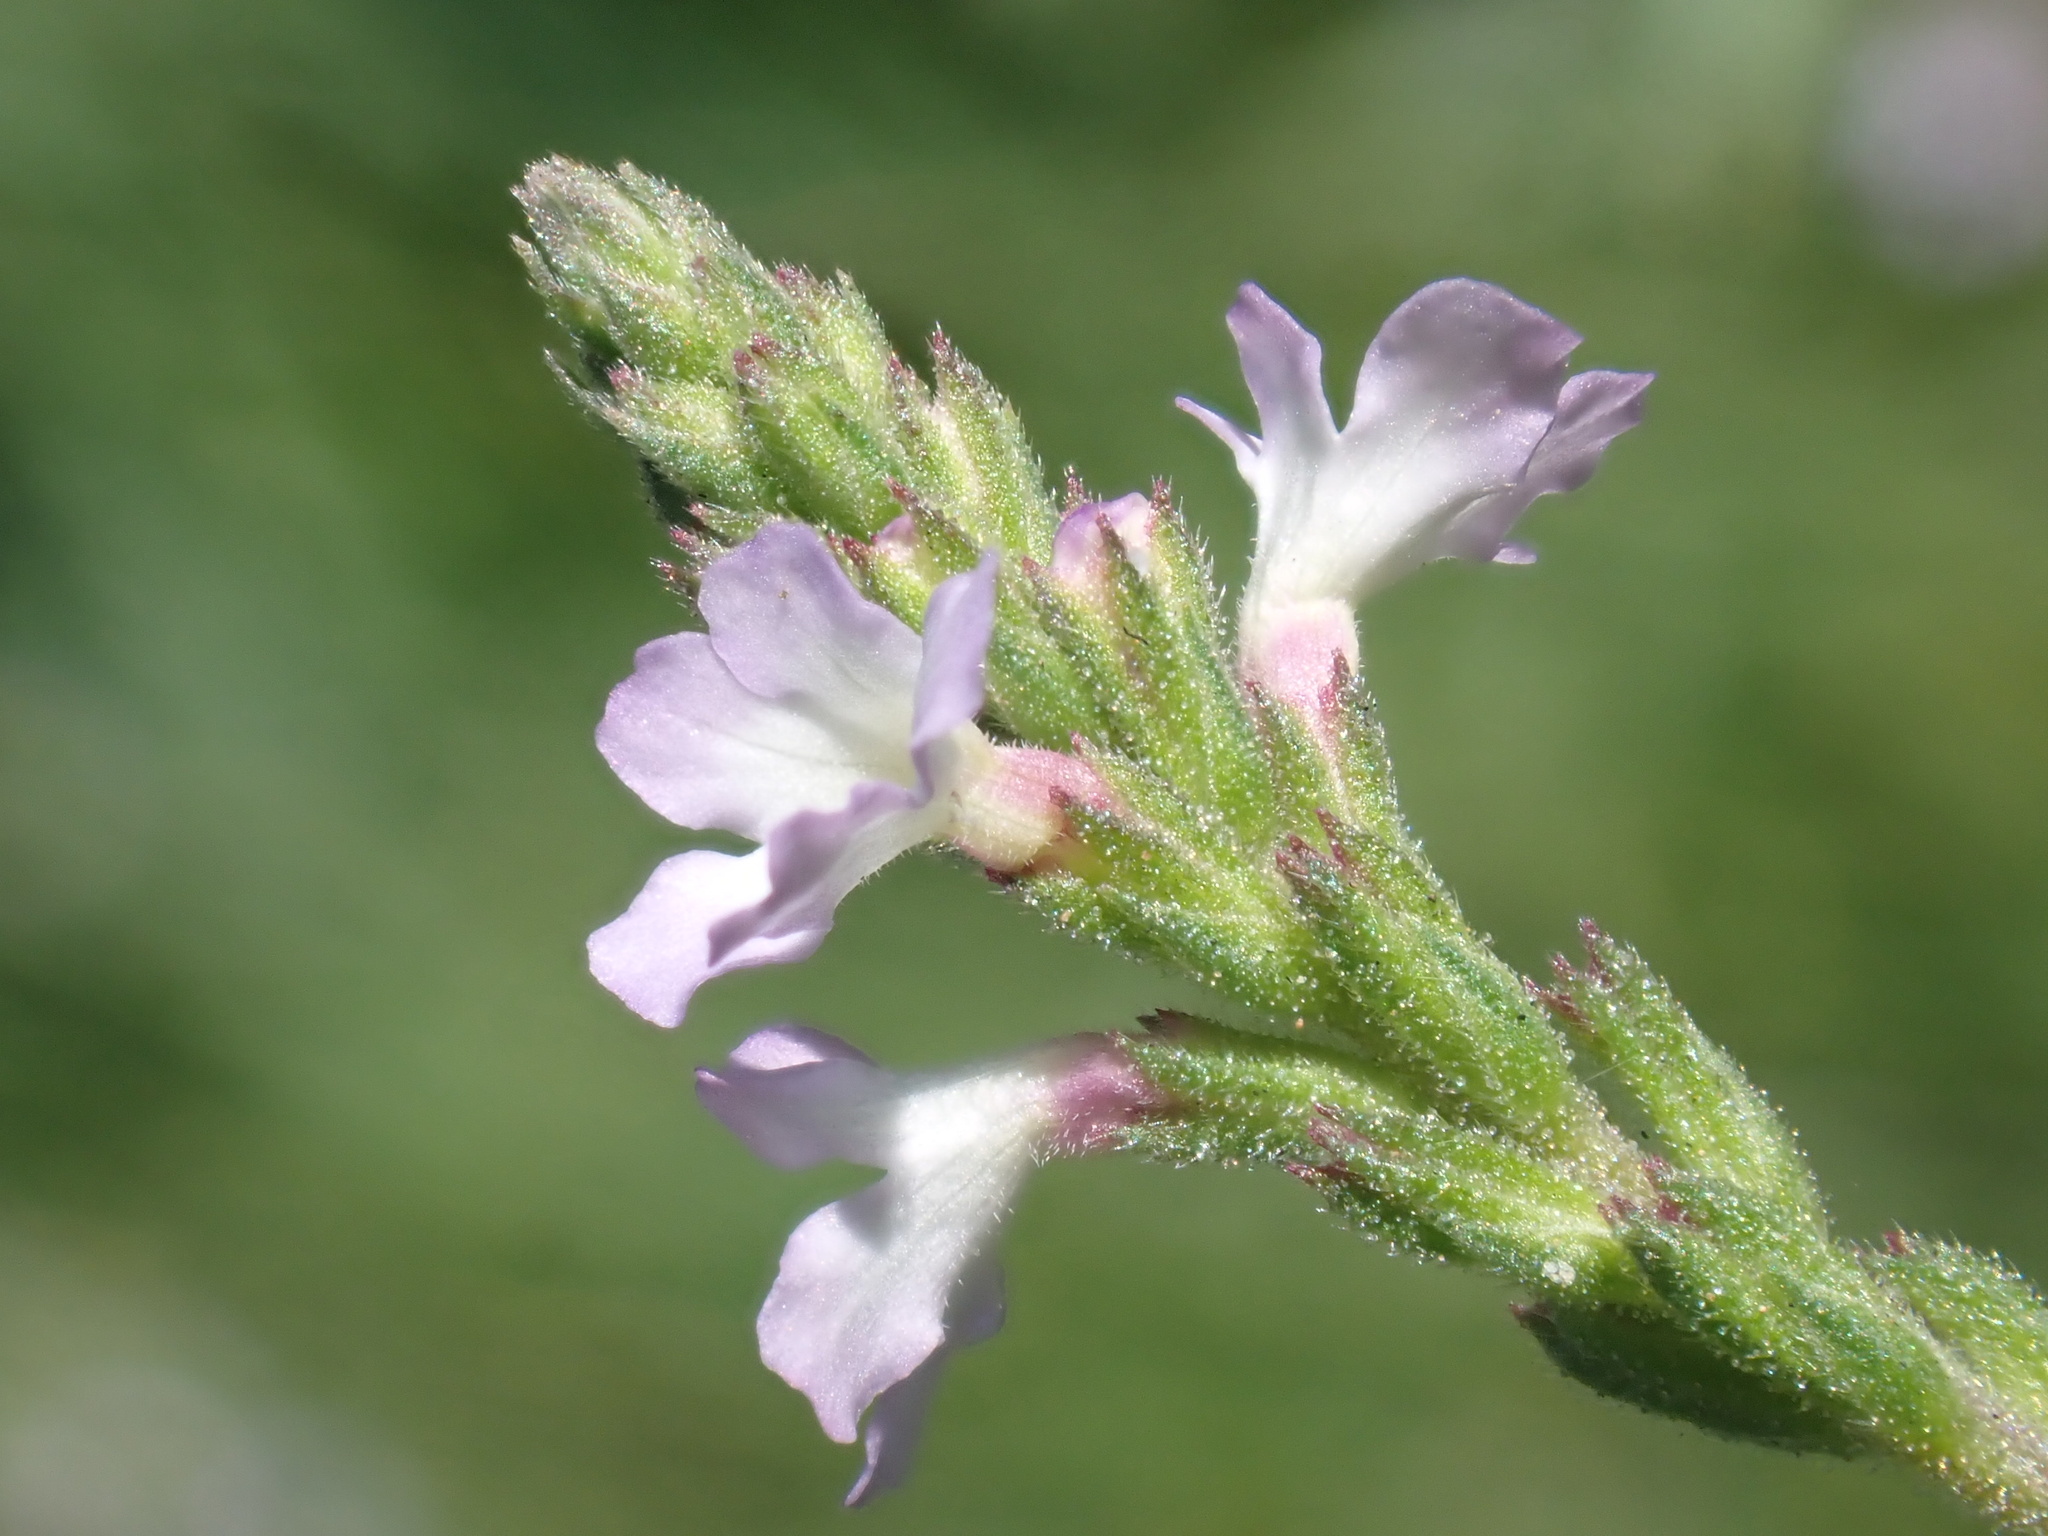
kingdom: Plantae
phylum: Tracheophyta
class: Magnoliopsida
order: Lamiales
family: Verbenaceae
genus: Verbena
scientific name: Verbena officinalis
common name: Vervain
